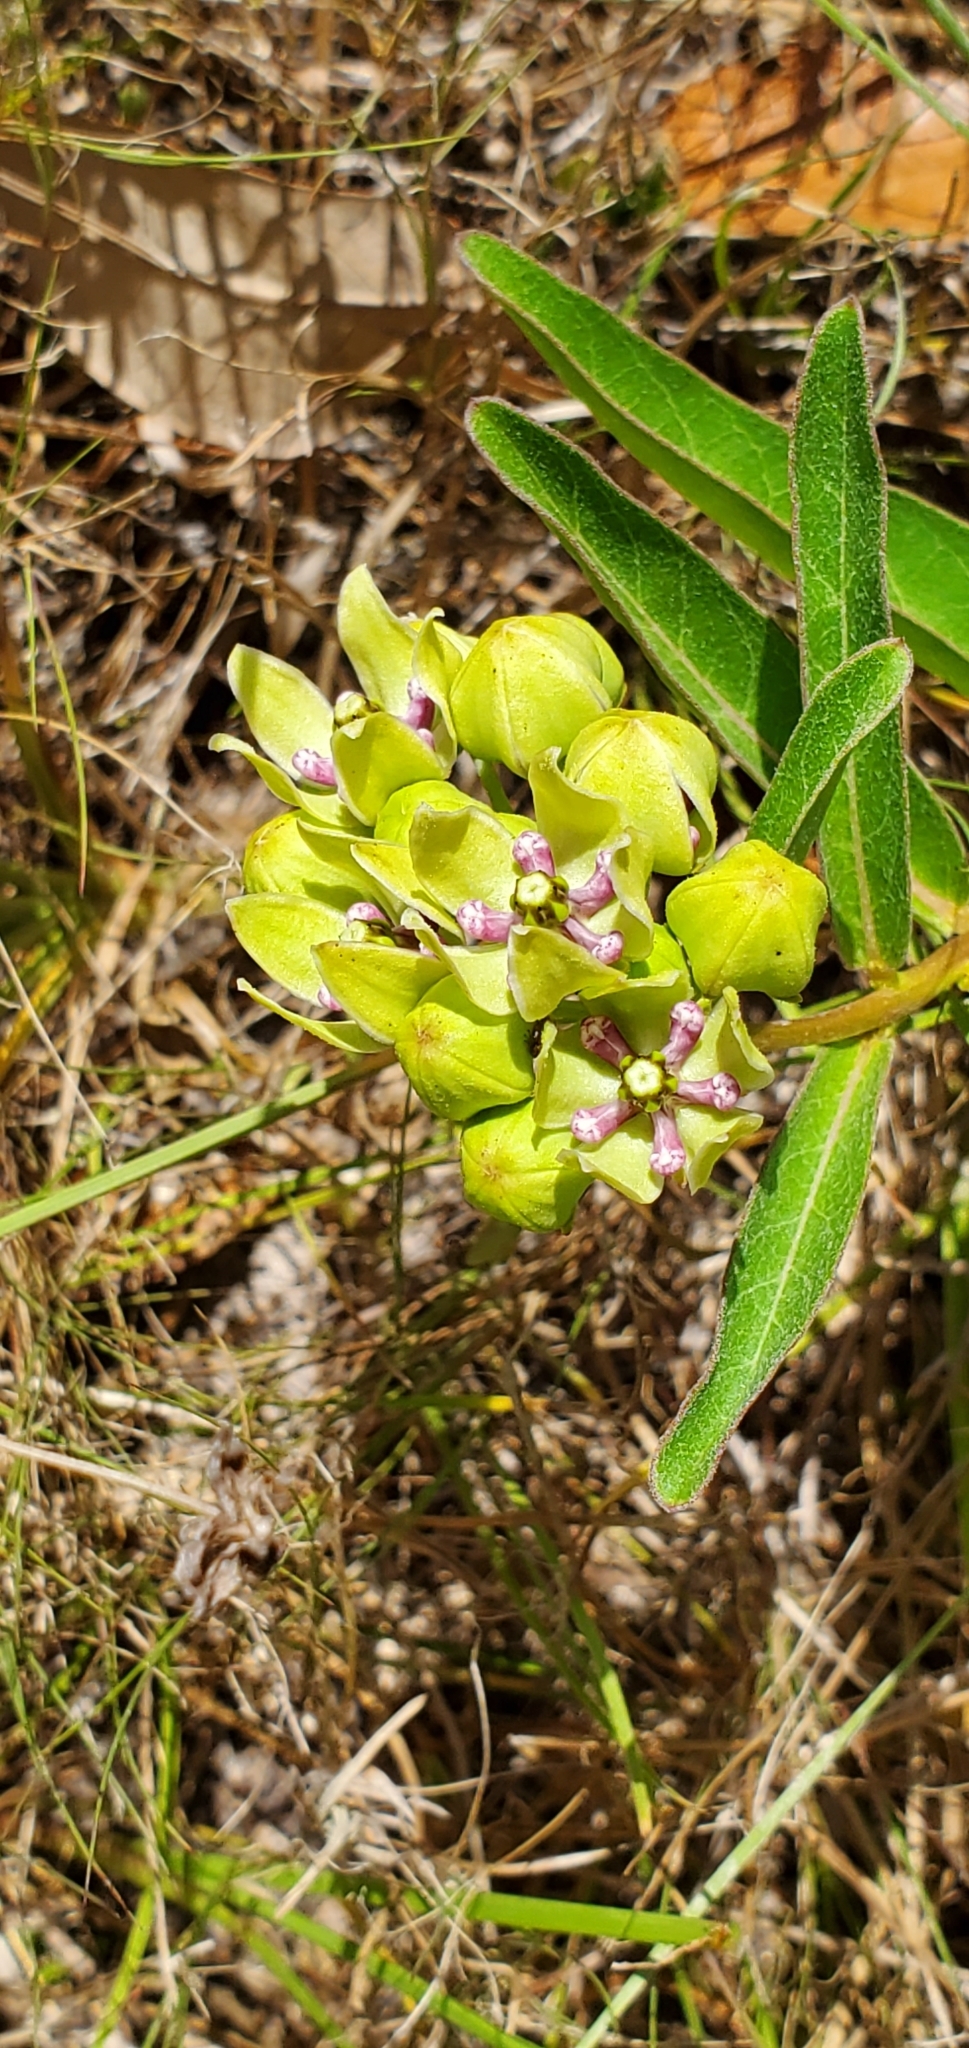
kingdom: Plantae
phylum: Tracheophyta
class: Magnoliopsida
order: Gentianales
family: Apocynaceae
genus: Asclepias
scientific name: Asclepias viridis
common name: Antelope-horns
